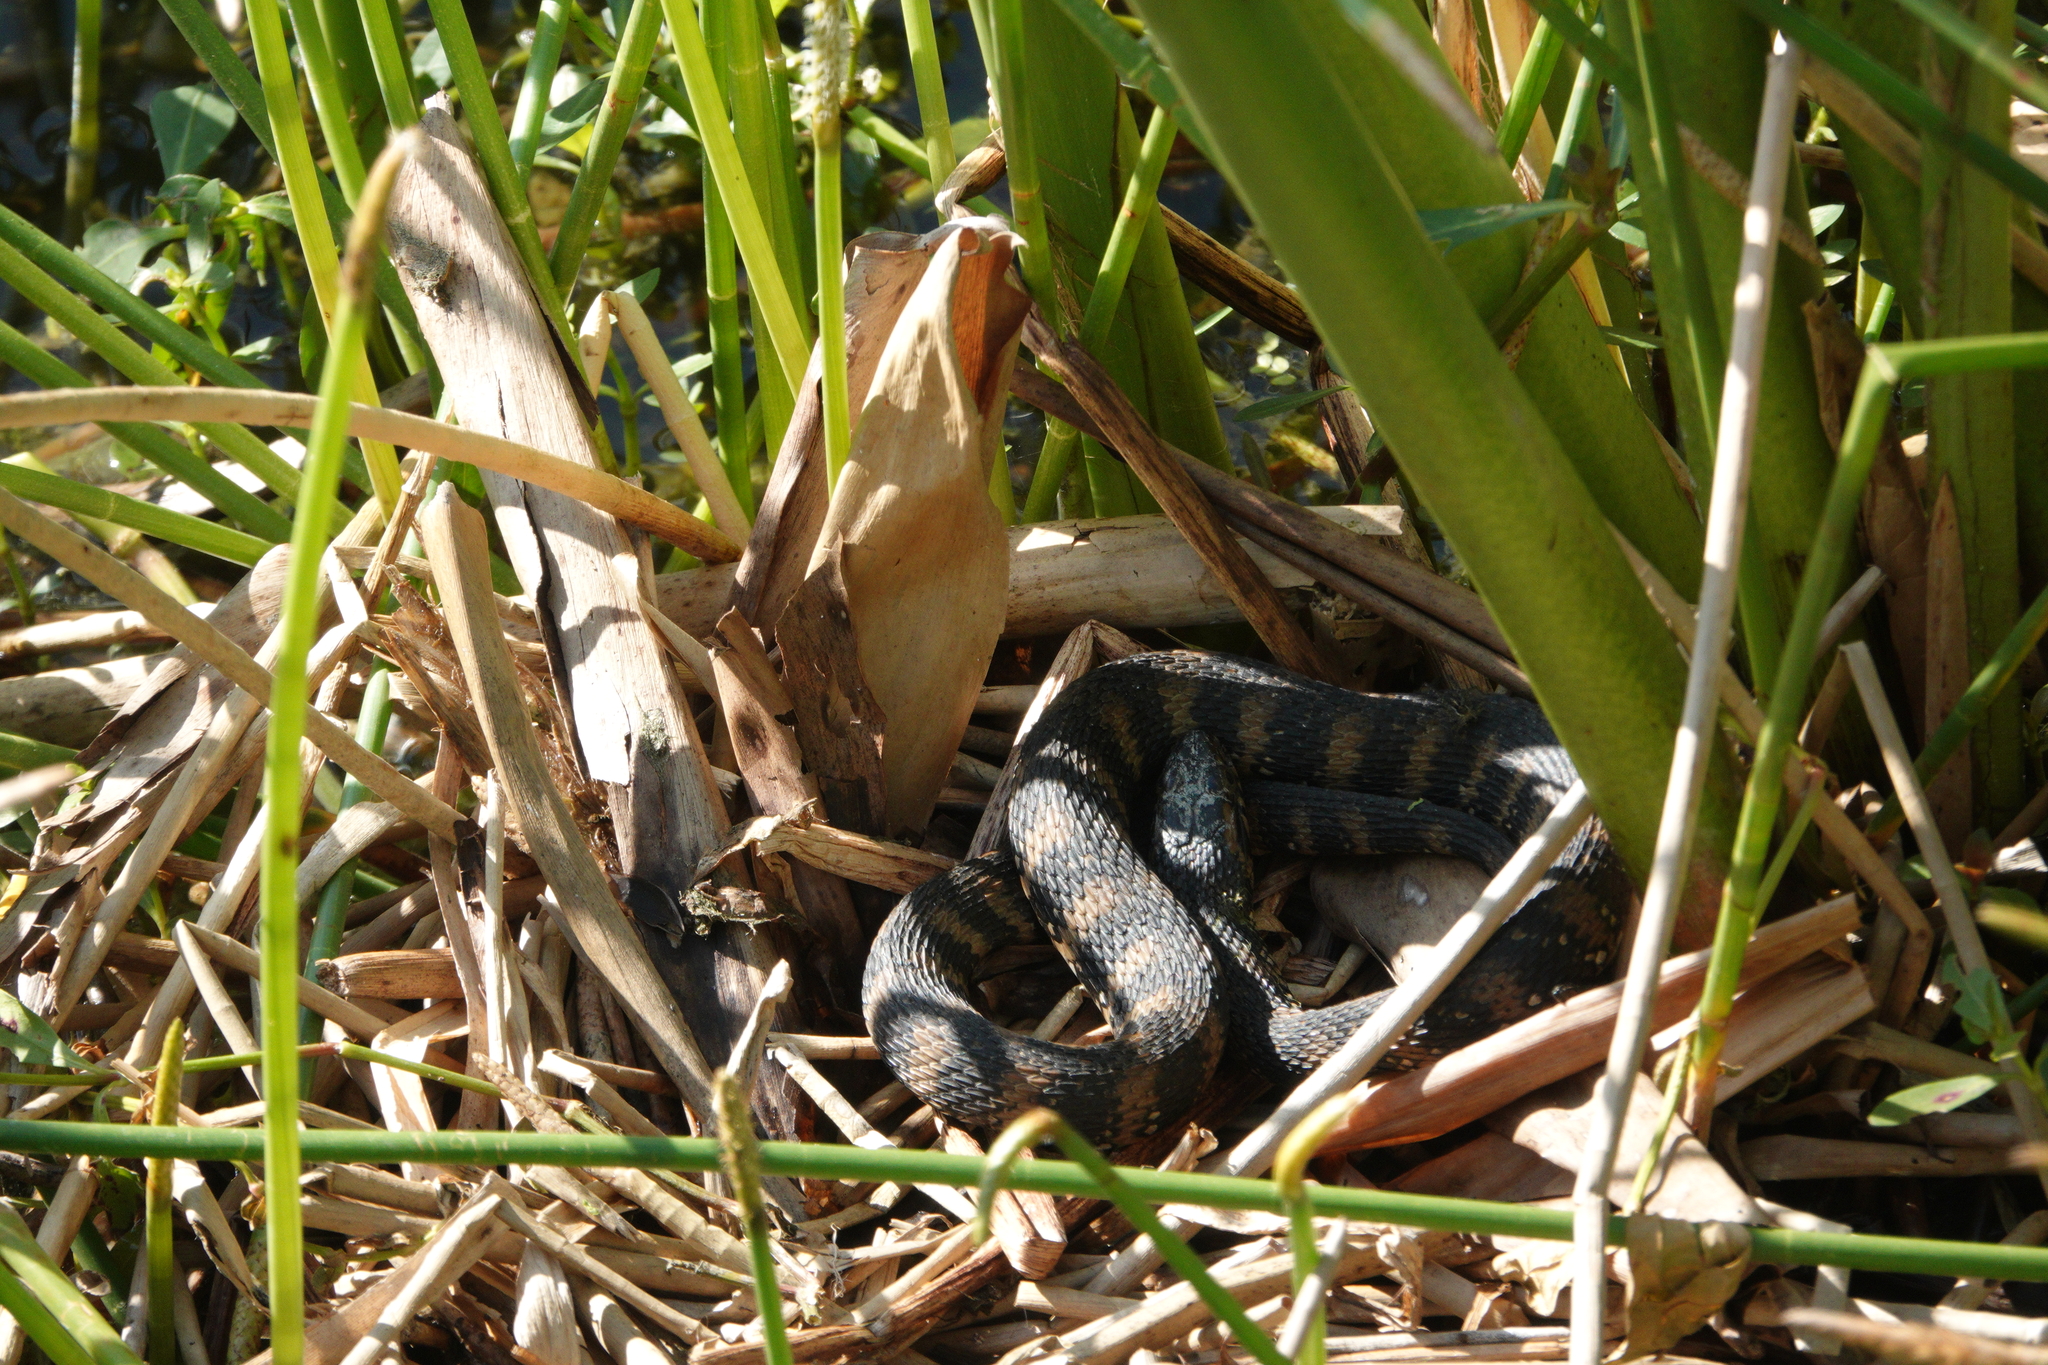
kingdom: Animalia
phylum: Chordata
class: Squamata
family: Colubridae
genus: Nerodia
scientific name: Nerodia fasciata
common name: Southern water snake
